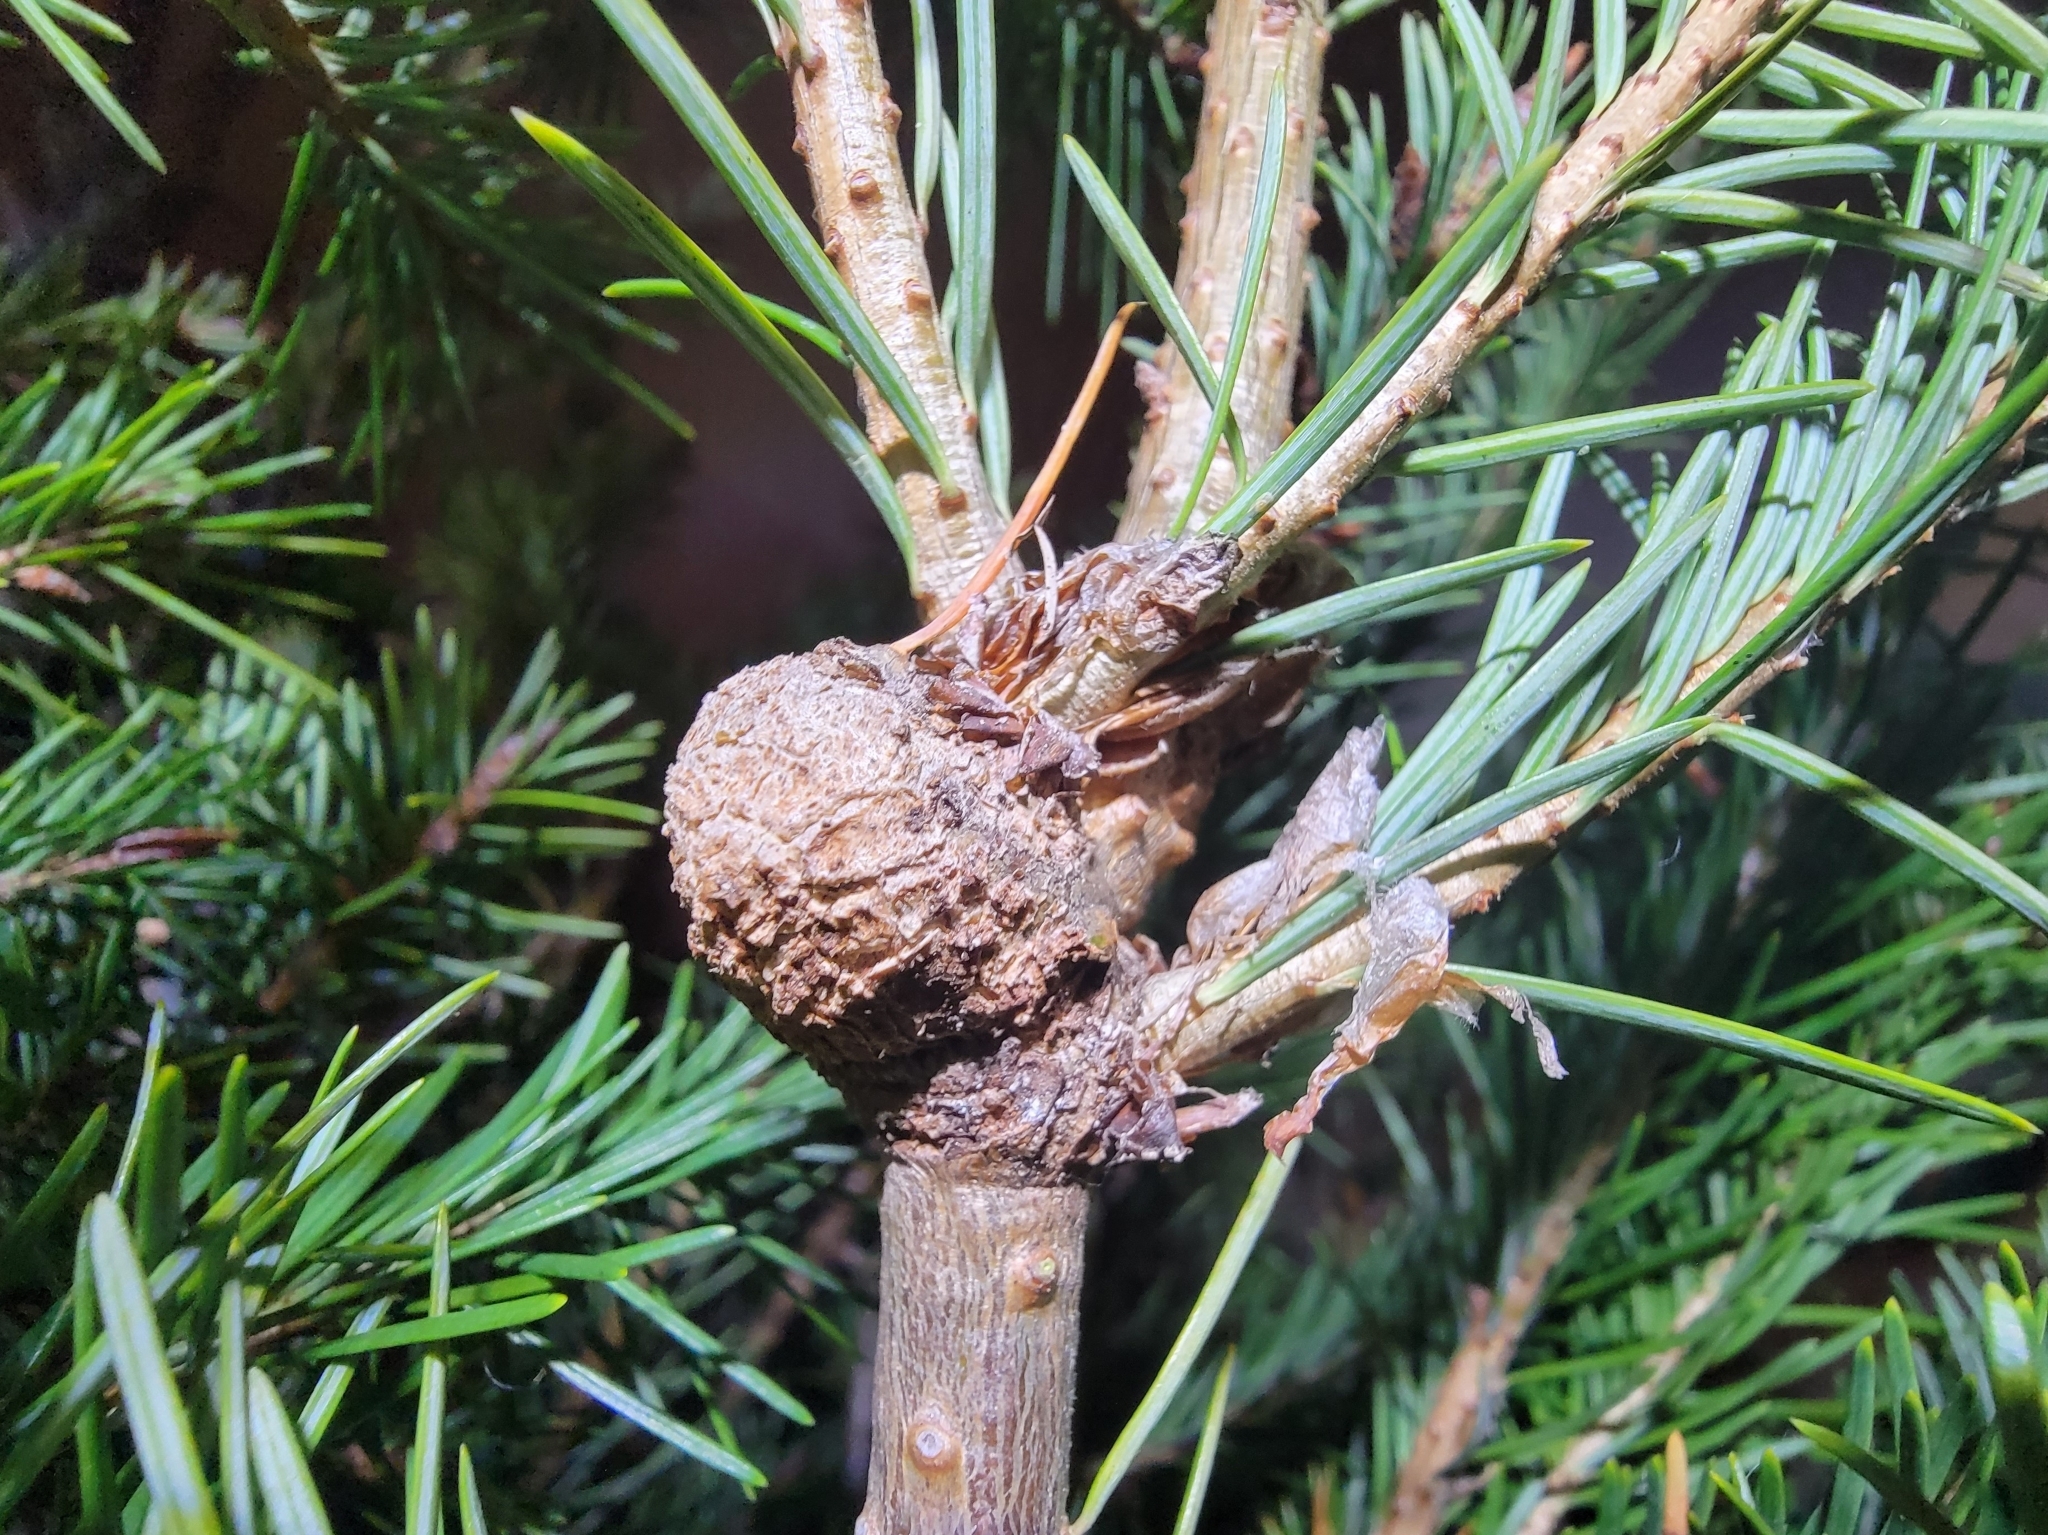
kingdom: Animalia
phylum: Arthropoda
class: Insecta
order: Hemiptera
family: Adelgidae
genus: Adelges
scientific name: Adelges piceae
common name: Balsam woolly adelgid
